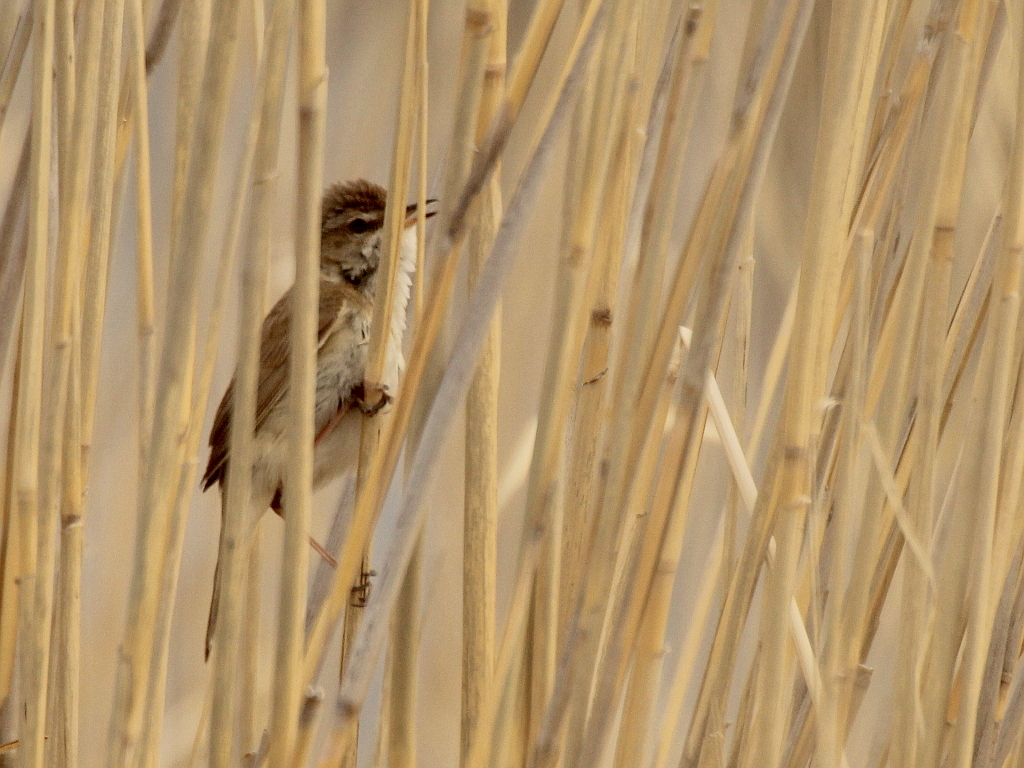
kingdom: Animalia
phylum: Chordata
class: Aves
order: Passeriformes
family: Acrocephalidae
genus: Acrocephalus
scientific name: Acrocephalus agricola
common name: Paddyfield warbler
